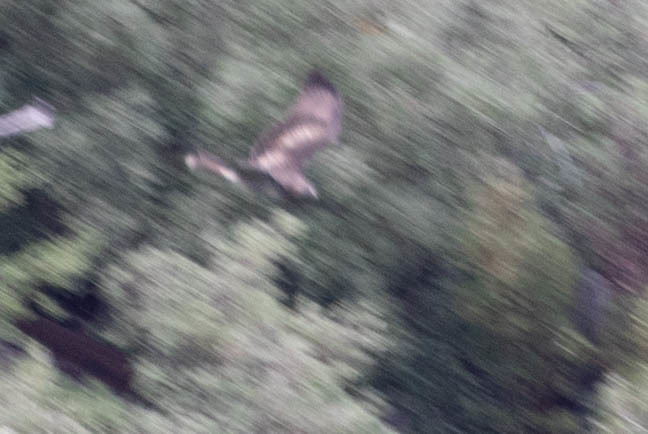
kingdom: Animalia
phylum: Chordata
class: Aves
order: Accipitriformes
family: Accipitridae
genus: Buteo
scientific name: Buteo jamaicensis
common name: Red-tailed hawk
